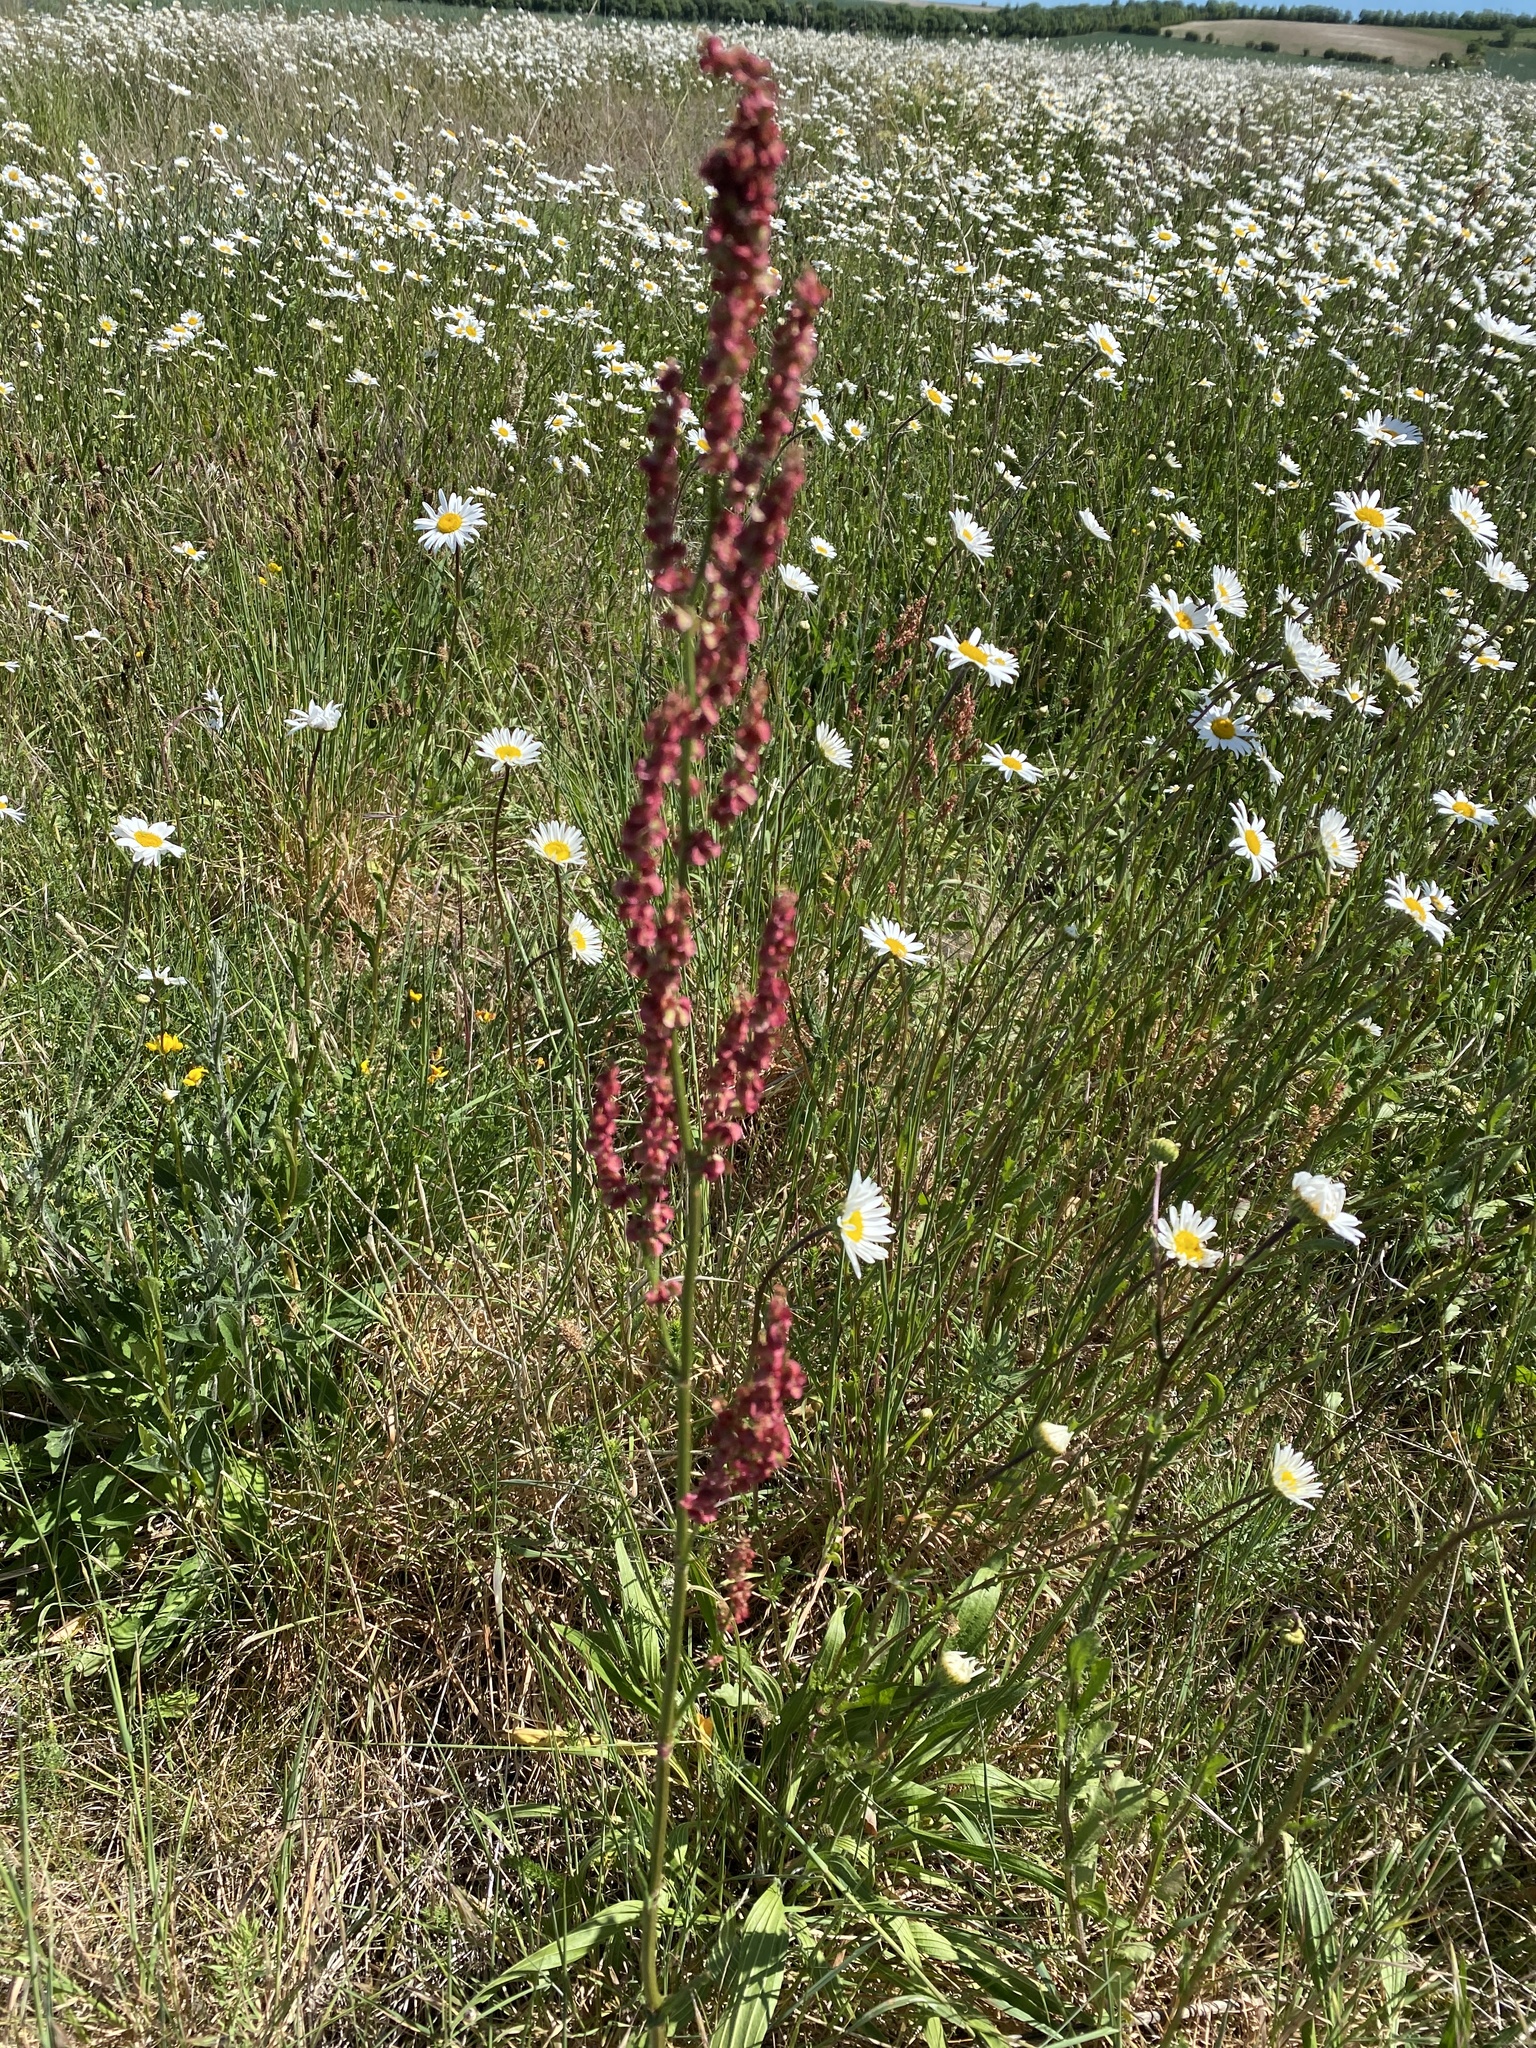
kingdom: Plantae
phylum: Tracheophyta
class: Magnoliopsida
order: Caryophyllales
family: Polygonaceae
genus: Rumex
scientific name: Rumex acetosa
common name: Garden sorrel
